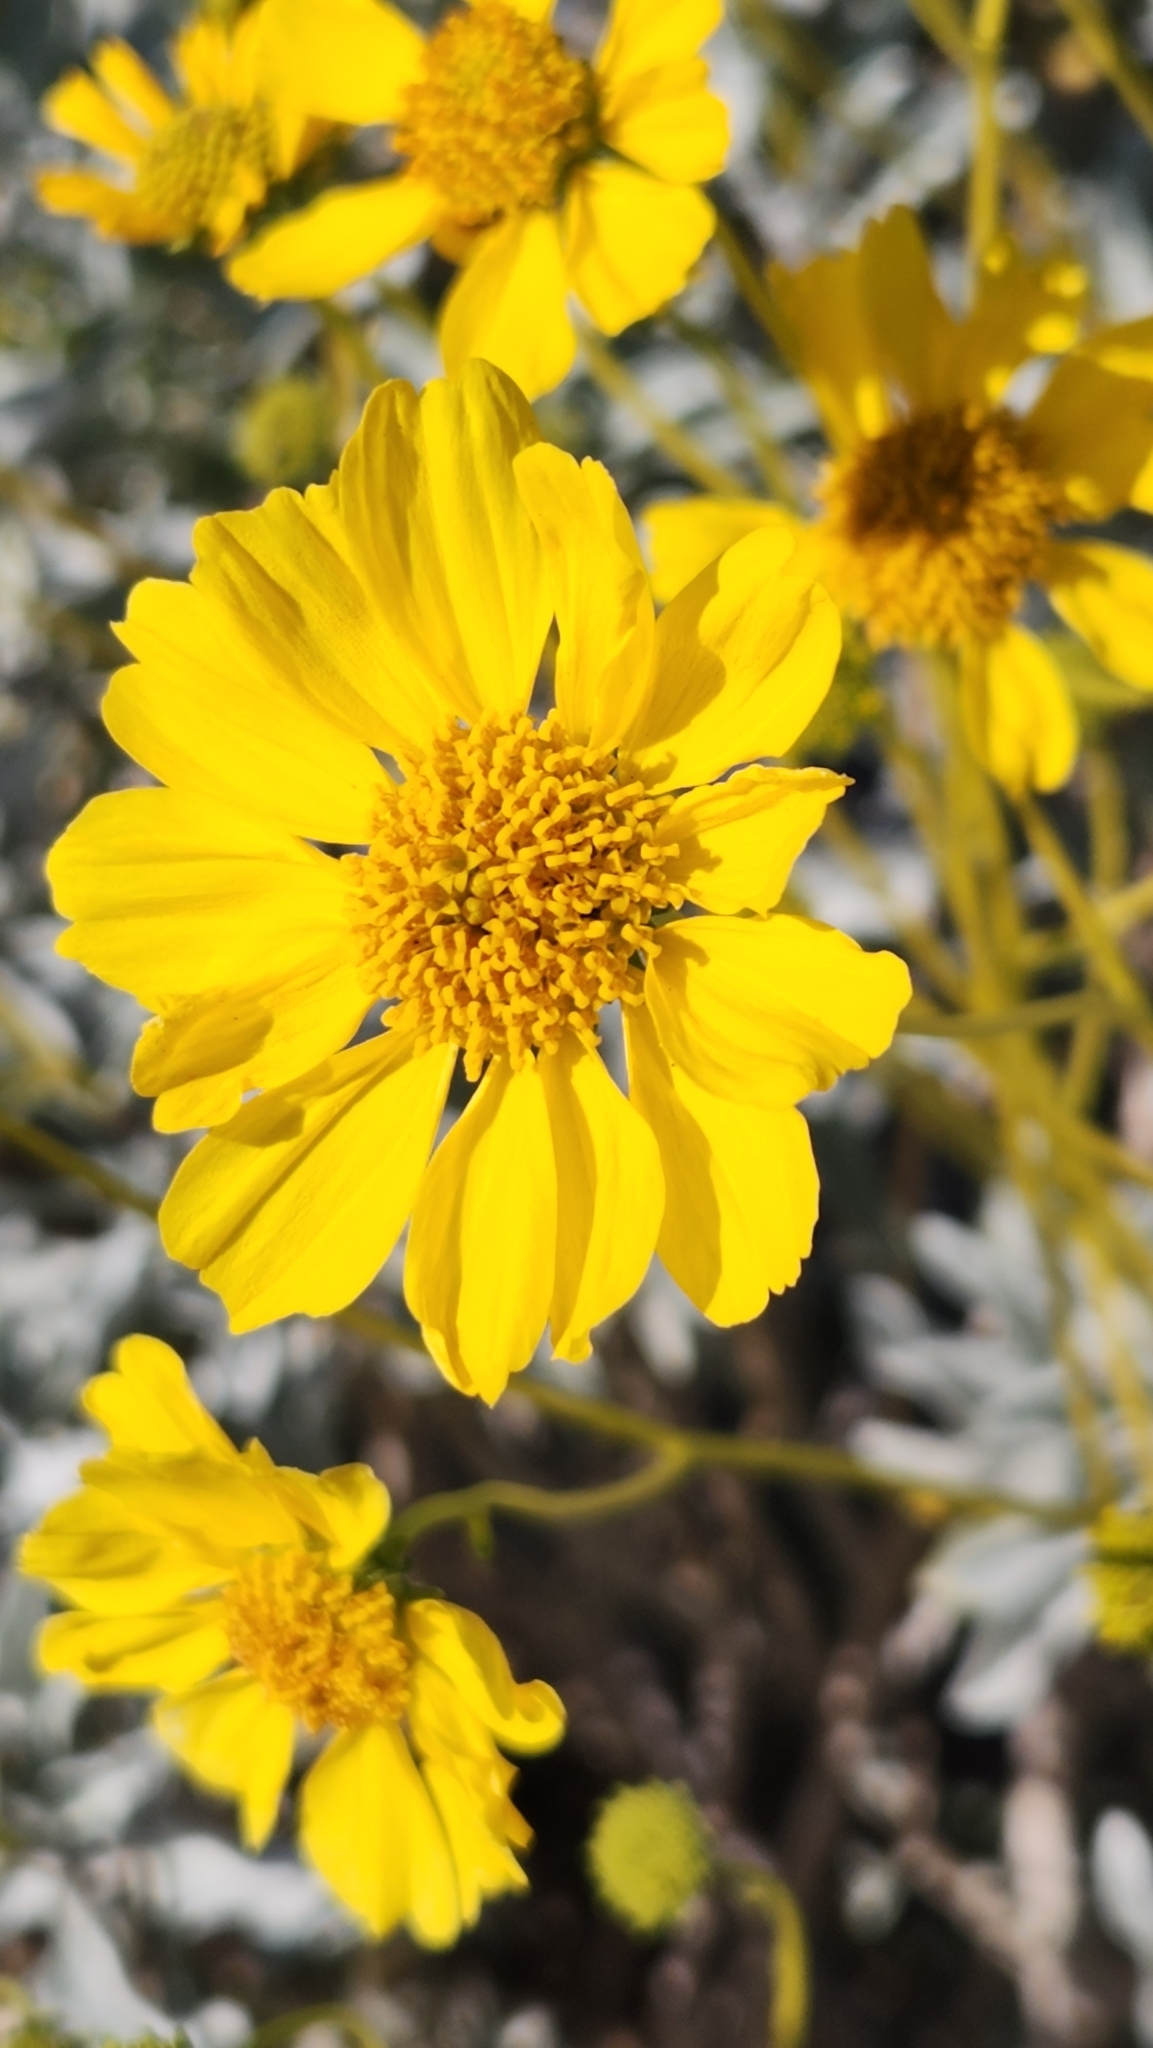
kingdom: Plantae
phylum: Tracheophyta
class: Magnoliopsida
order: Asterales
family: Asteraceae
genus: Encelia
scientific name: Encelia farinosa
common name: Brittlebush
